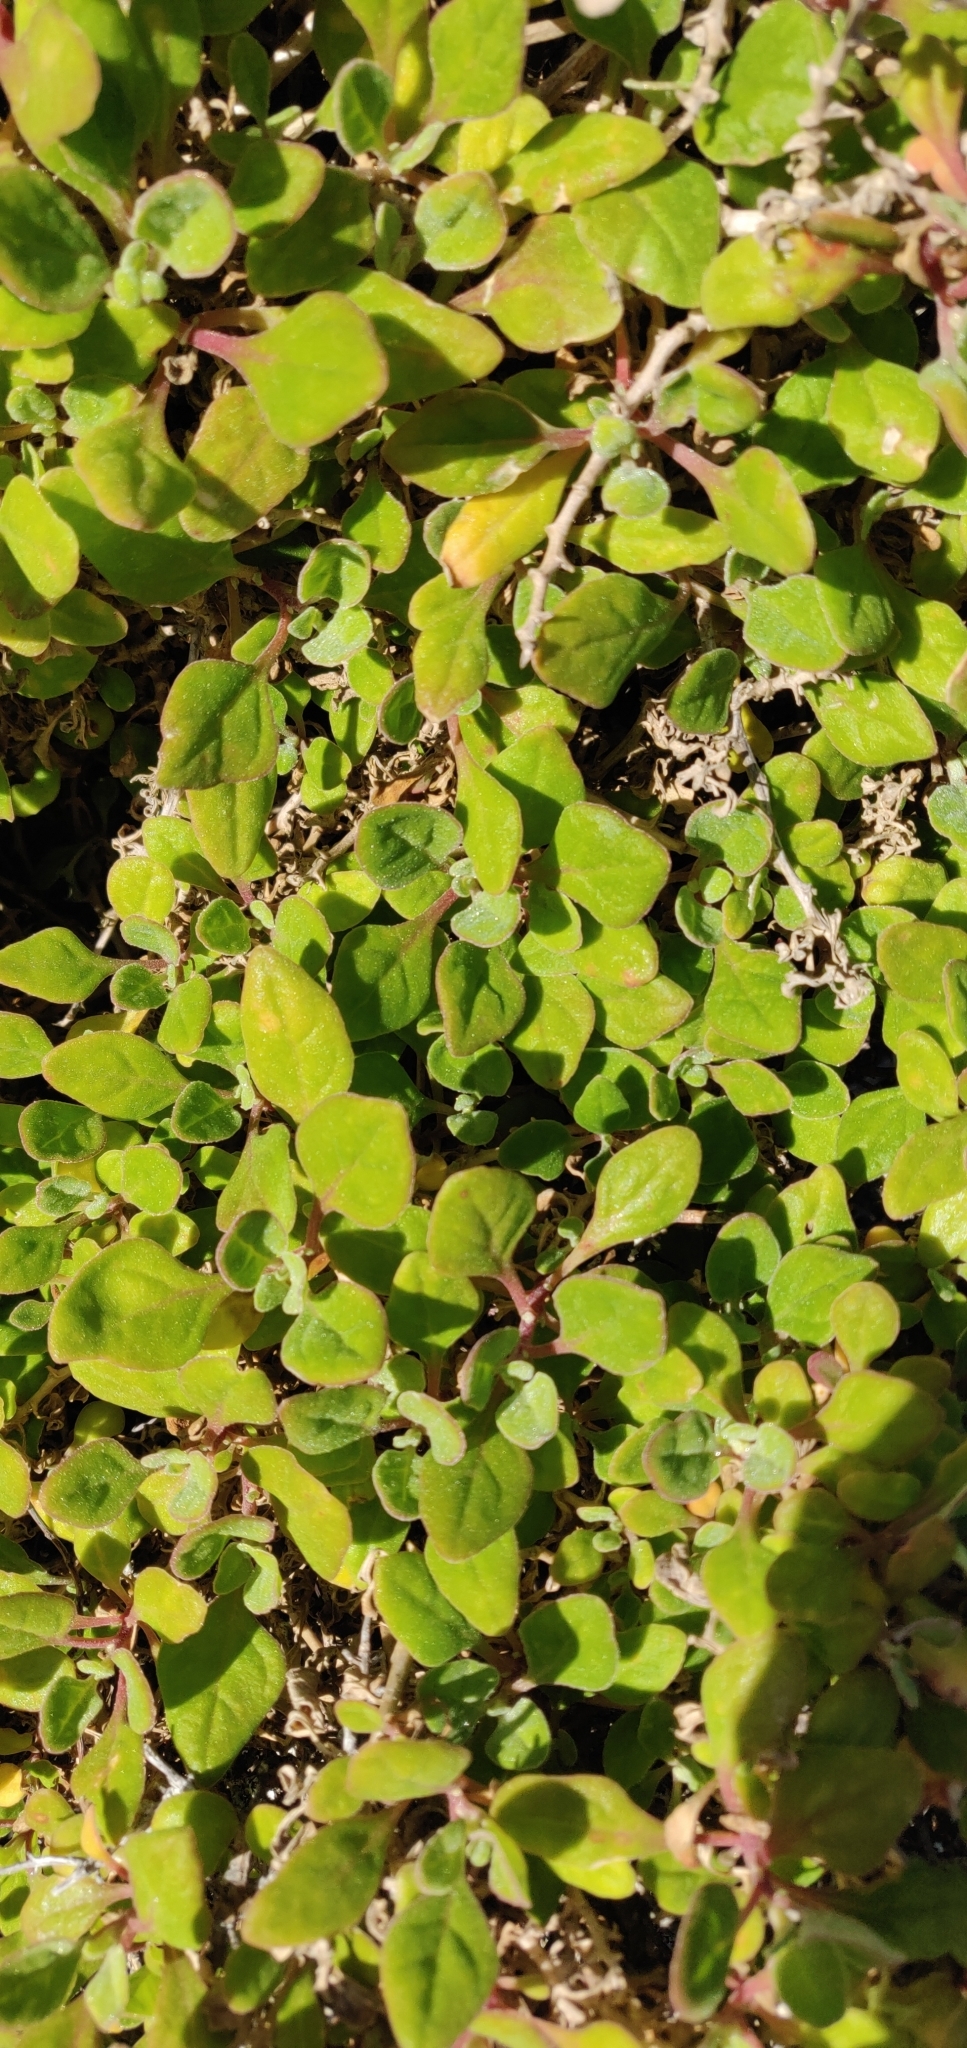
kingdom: Plantae
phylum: Tracheophyta
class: Magnoliopsida
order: Caryophyllales
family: Aizoaceae
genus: Tetragonia
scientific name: Tetragonia implexicoma
